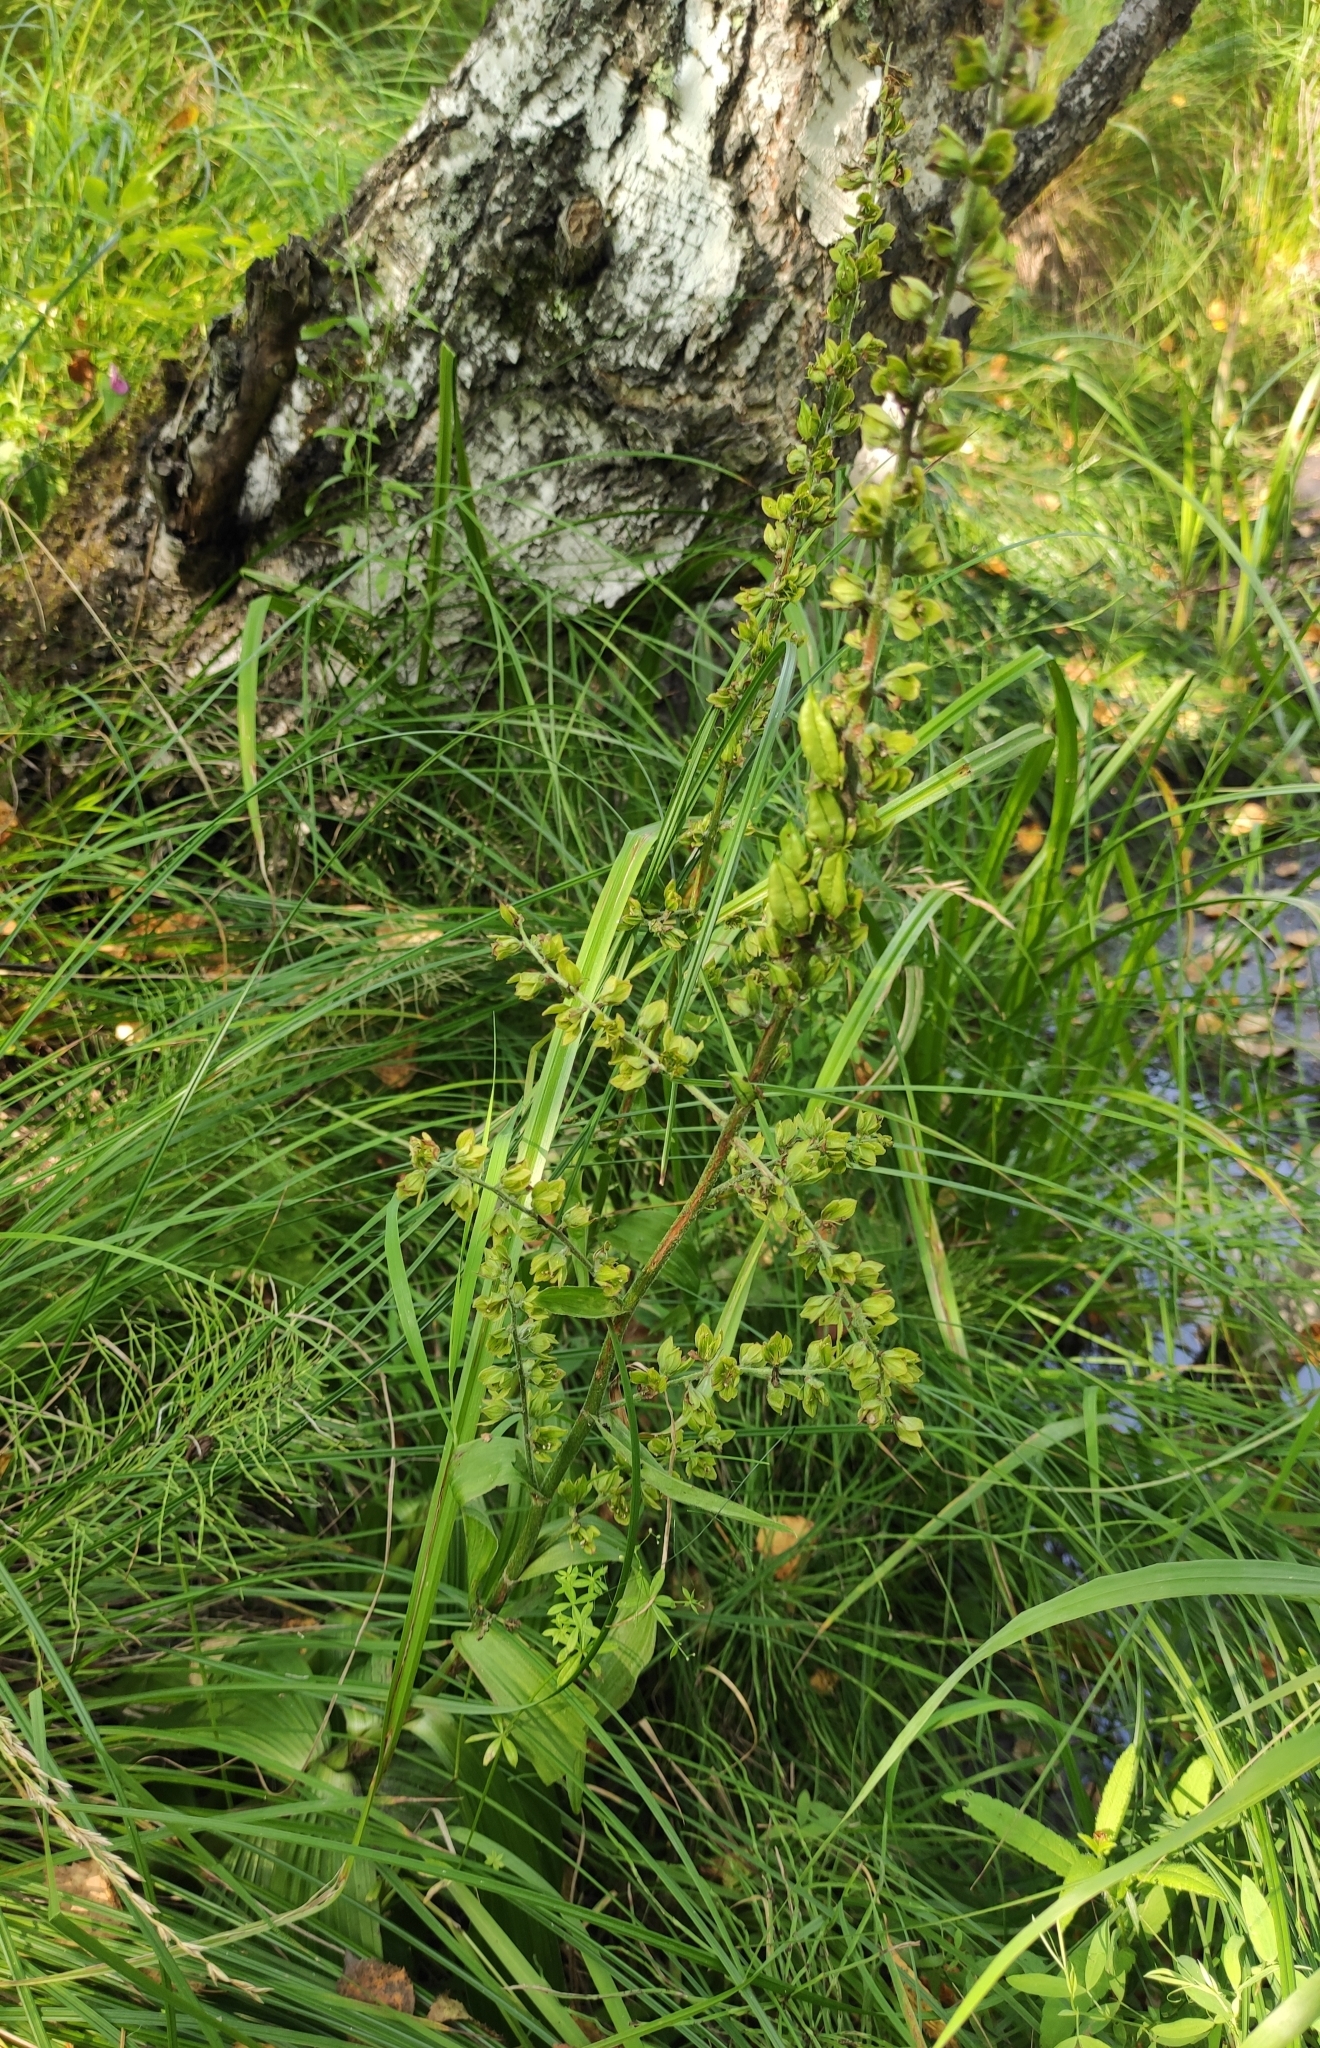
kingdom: Plantae
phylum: Tracheophyta
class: Liliopsida
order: Liliales
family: Melanthiaceae
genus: Veratrum
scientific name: Veratrum lobelianum
